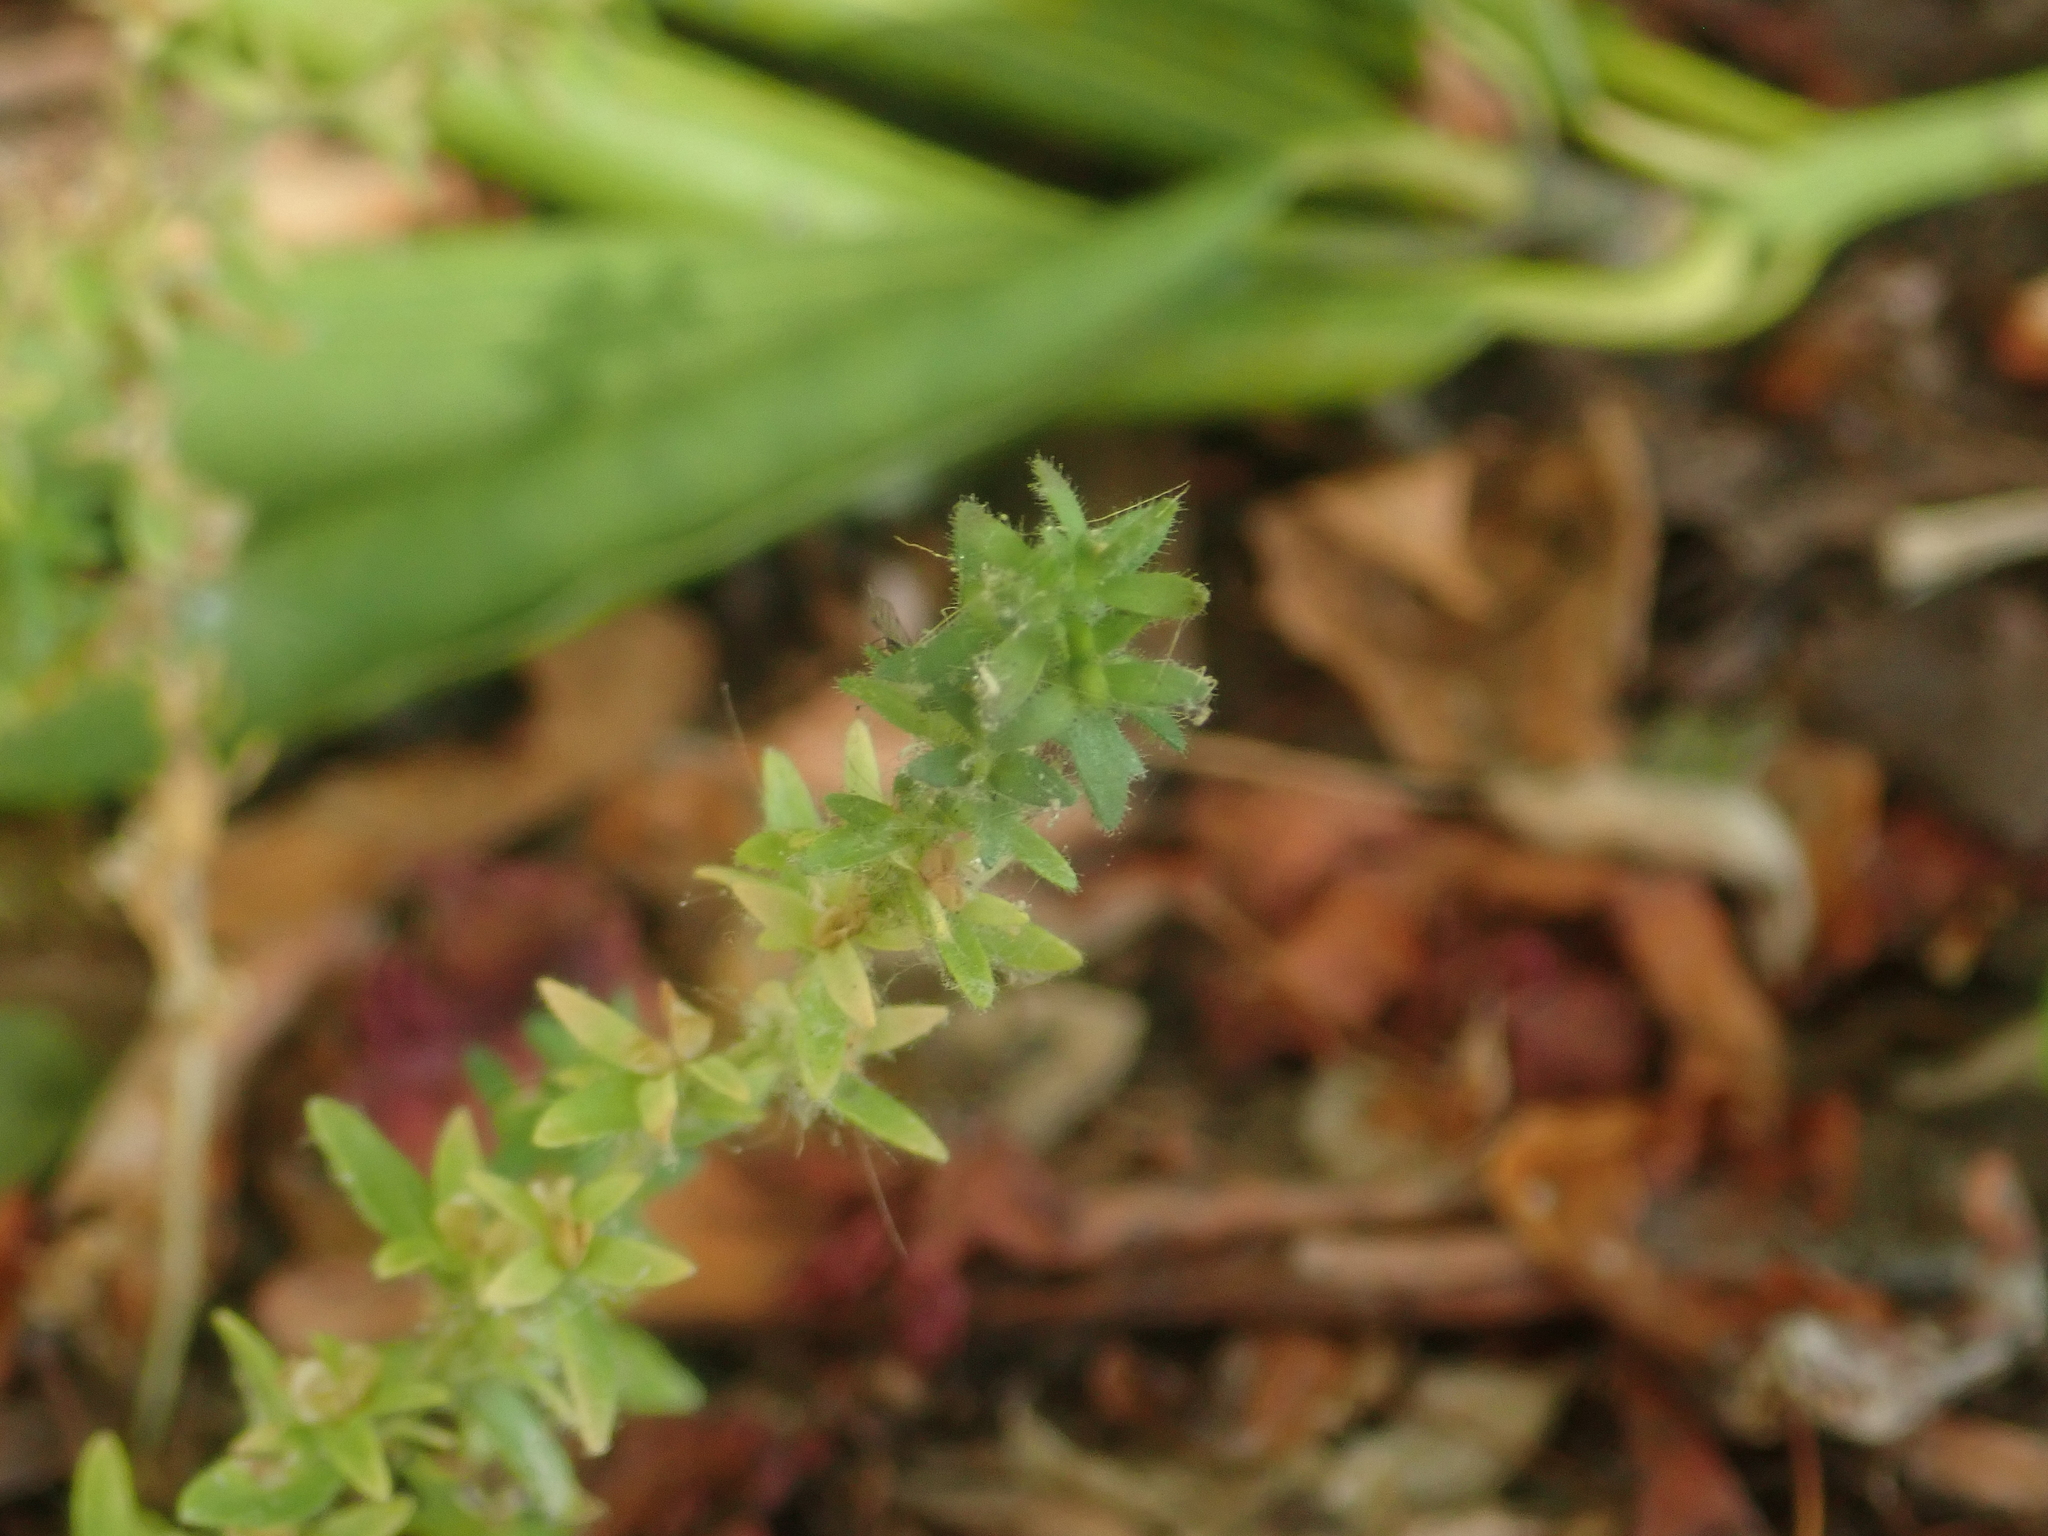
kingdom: Plantae
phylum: Tracheophyta
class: Magnoliopsida
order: Lamiales
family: Plantaginaceae
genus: Veronica
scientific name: Veronica arvensis
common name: Corn speedwell
